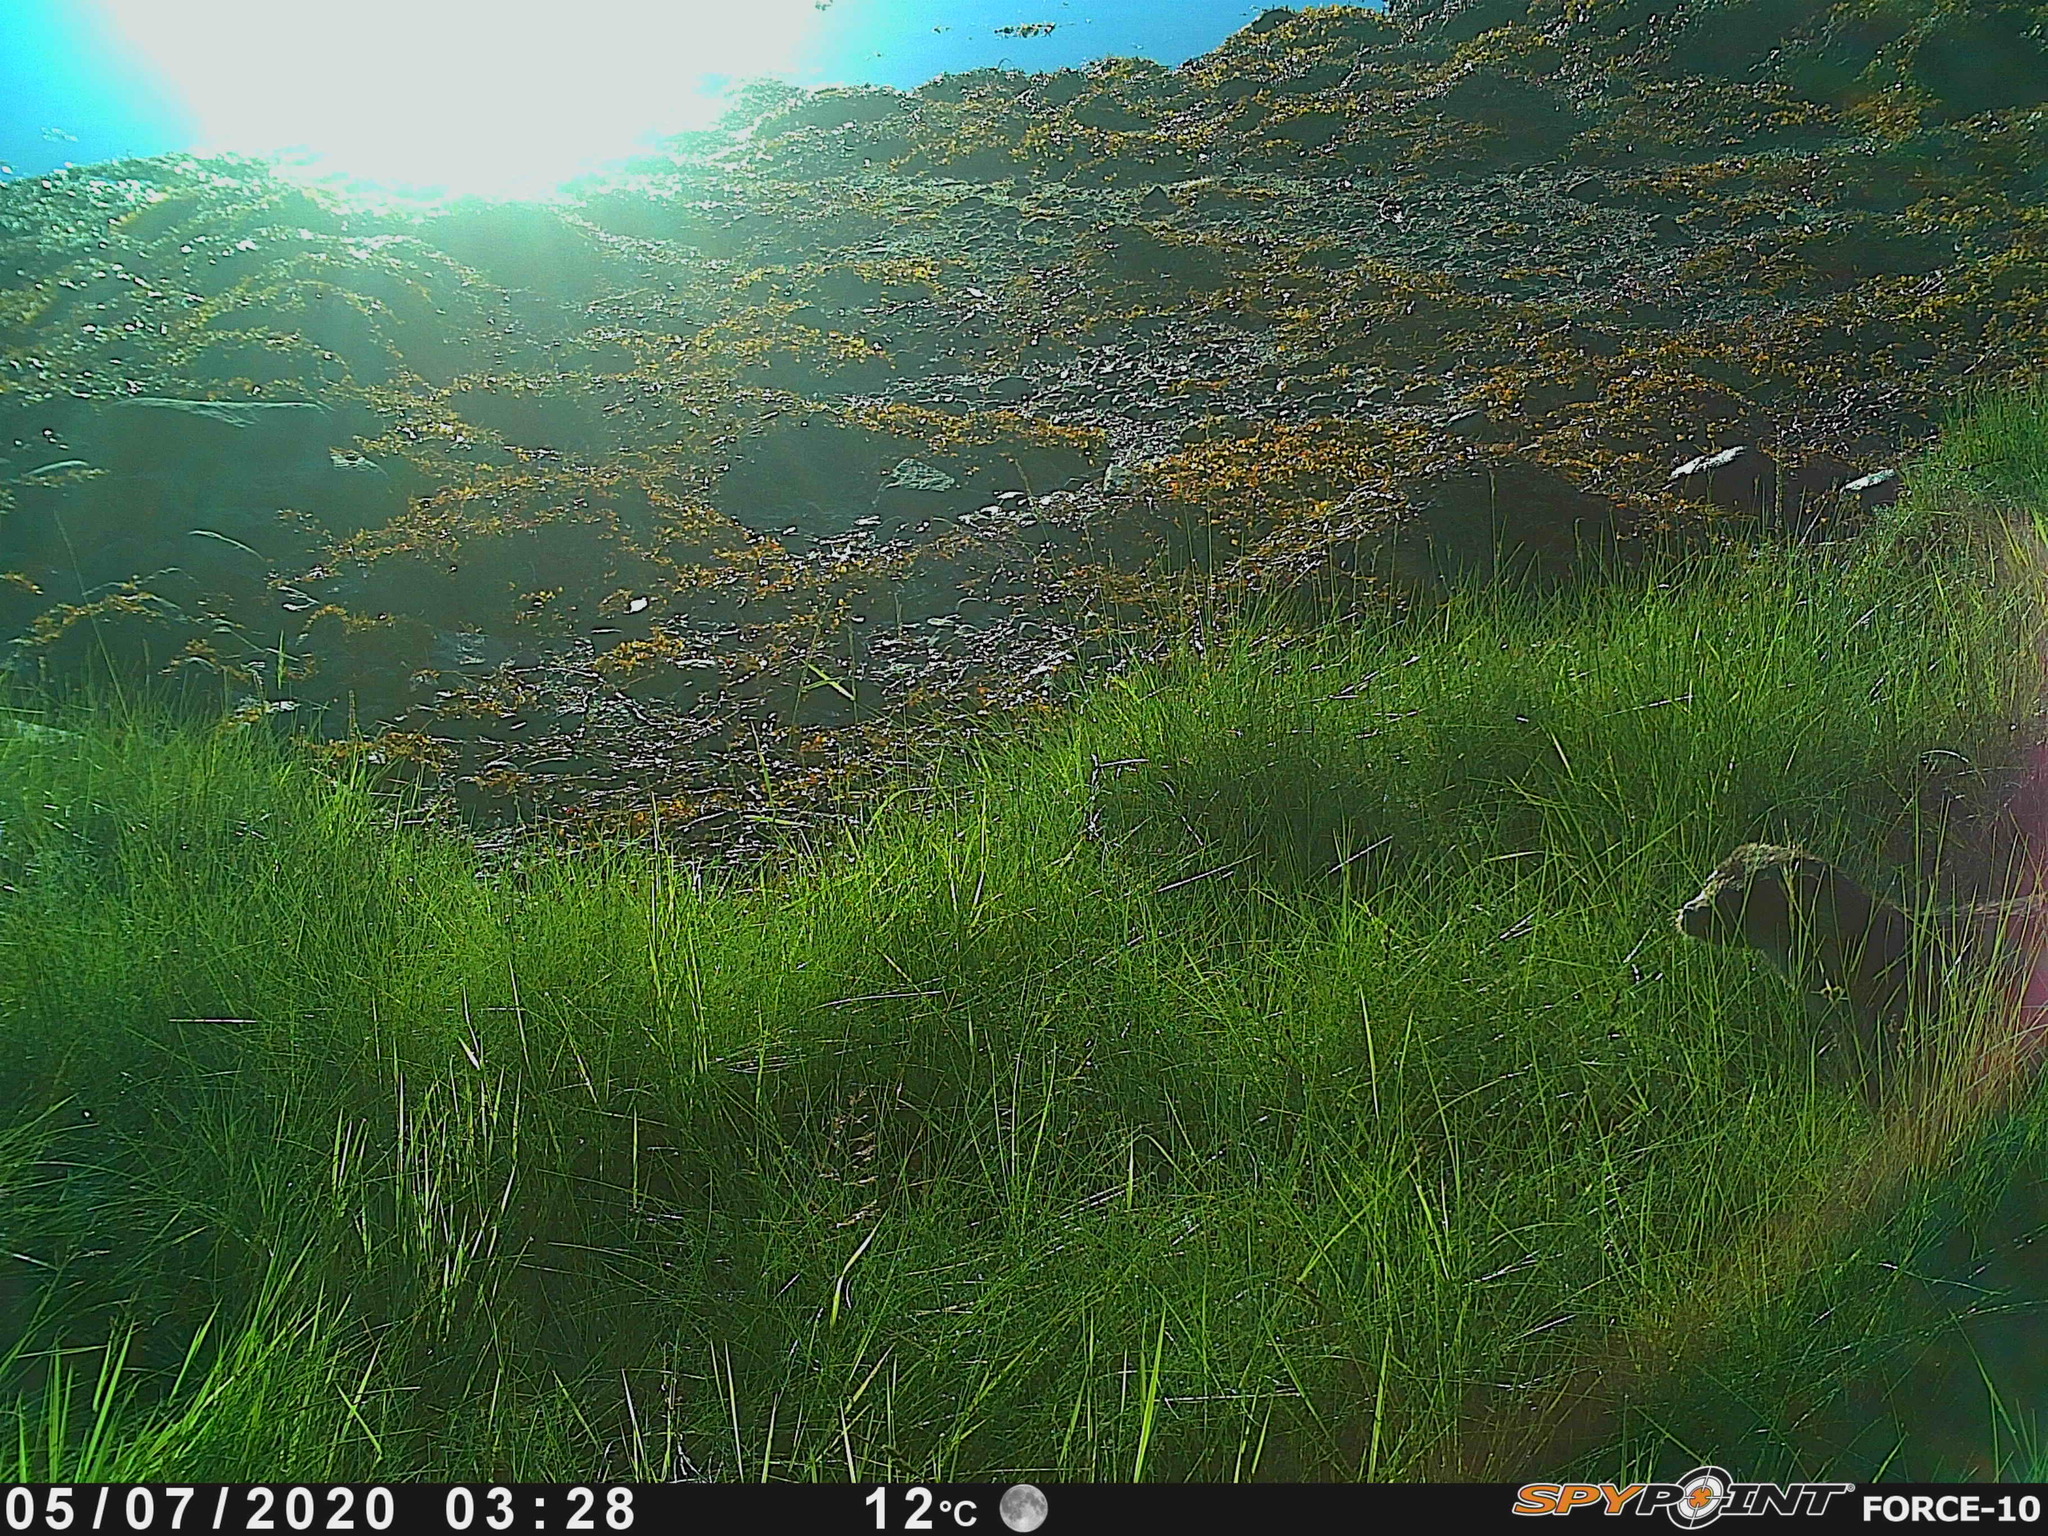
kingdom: Animalia
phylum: Chordata
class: Mammalia
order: Carnivora
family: Mustelidae
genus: Lutra
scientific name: Lutra lutra
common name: European otter
